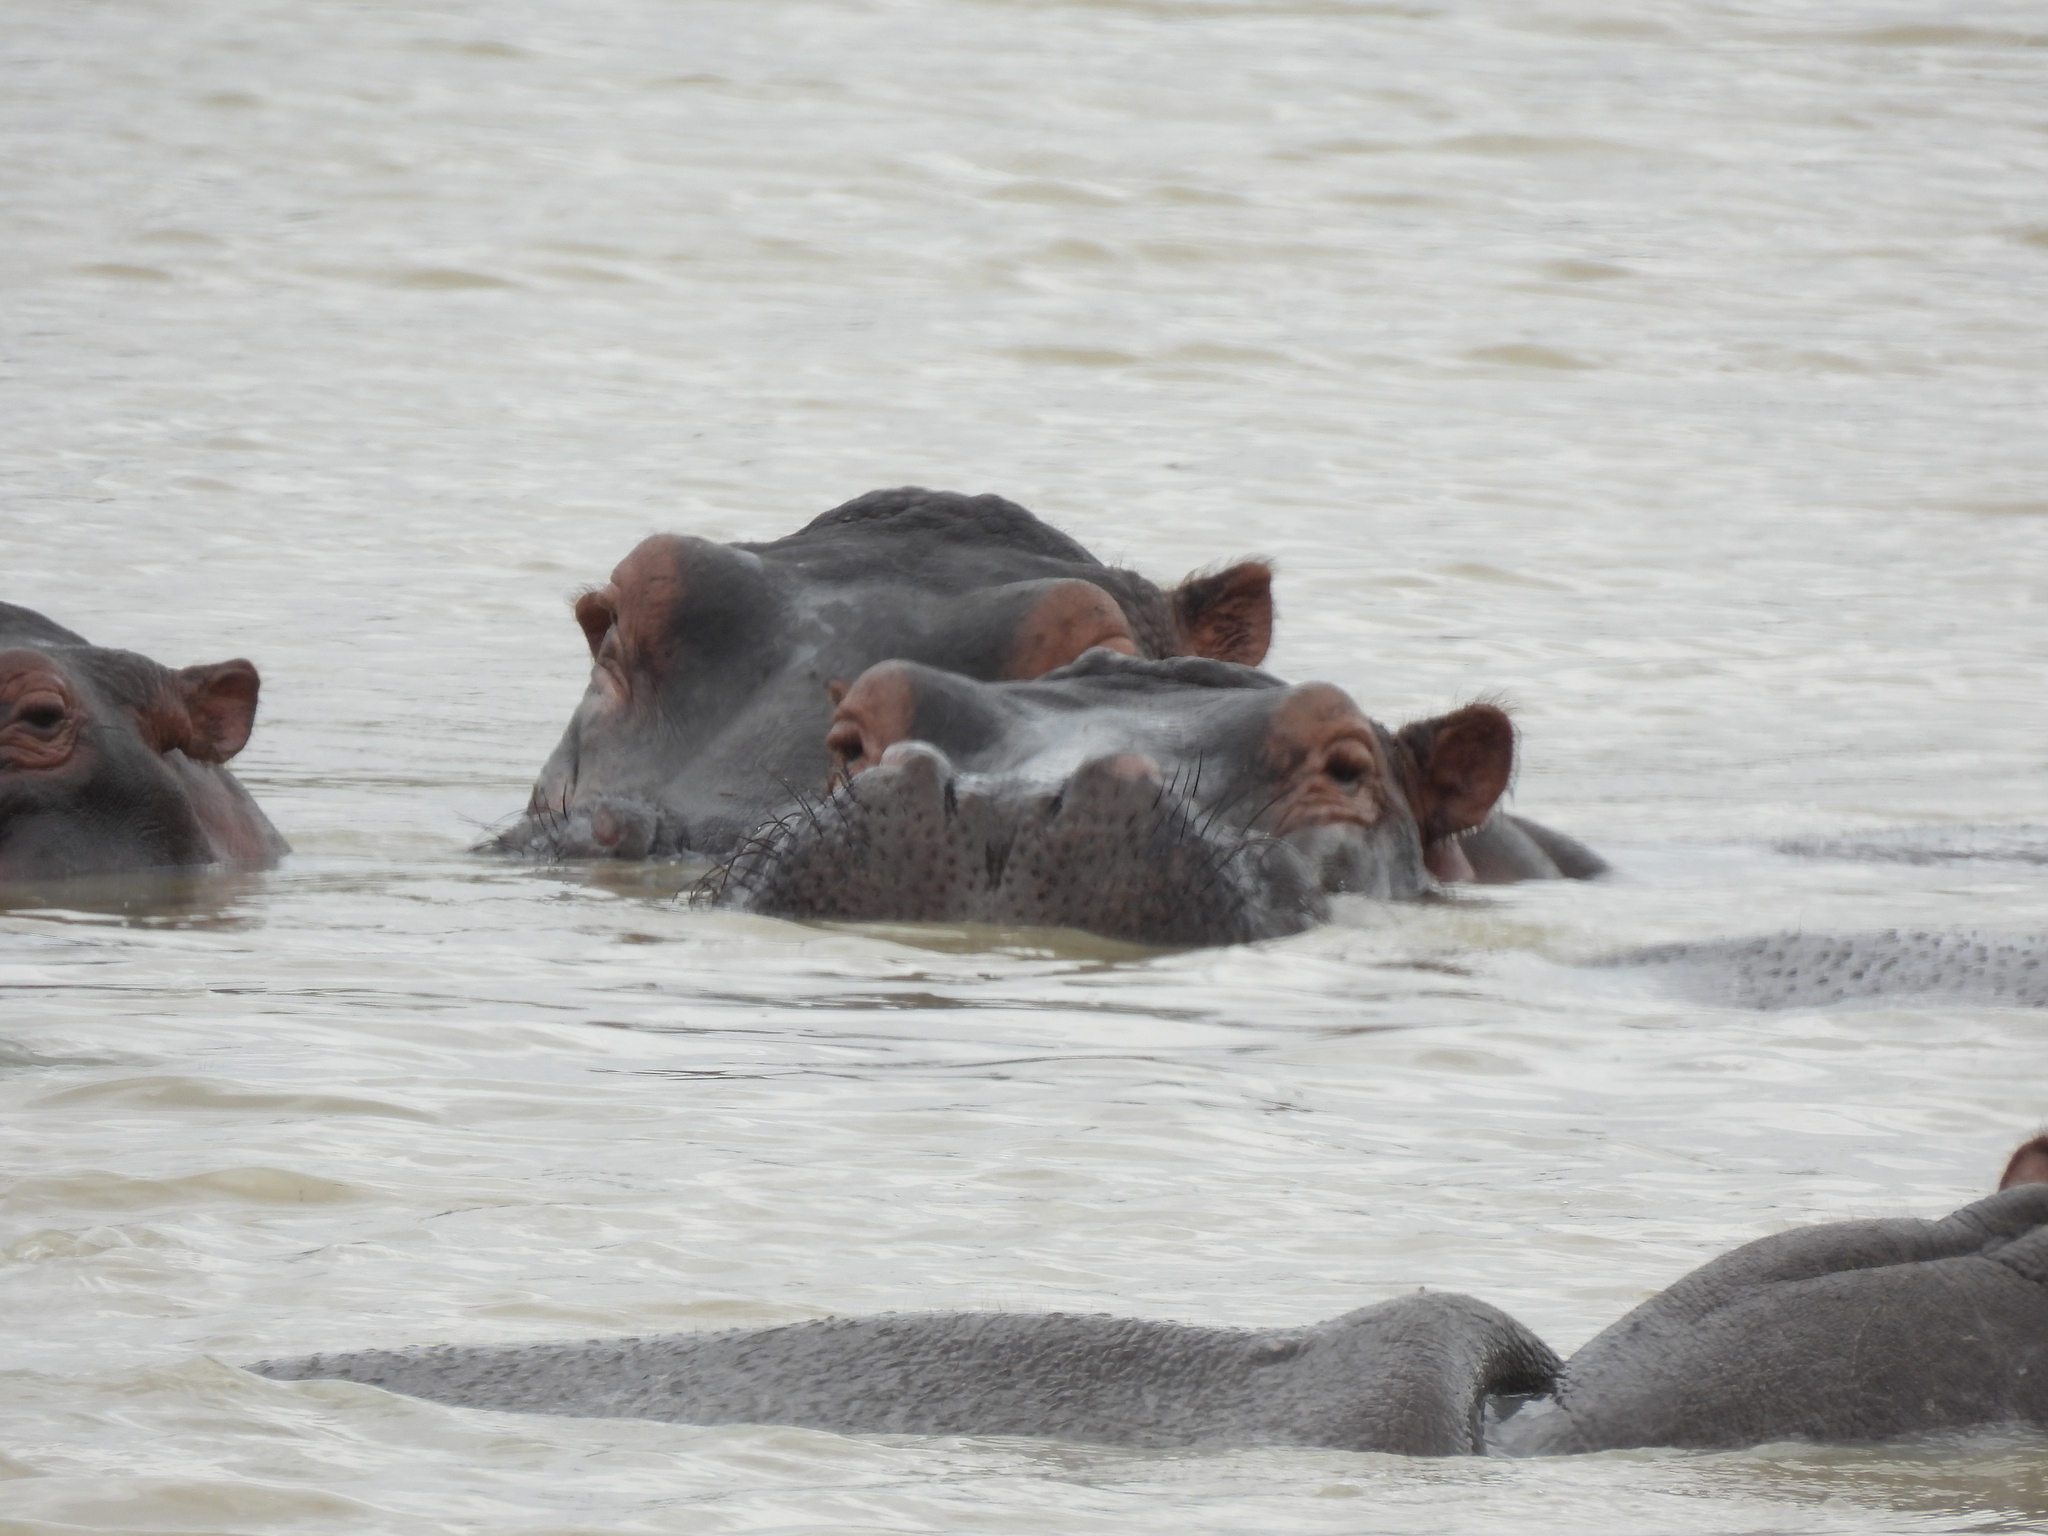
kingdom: Animalia
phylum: Chordata
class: Mammalia
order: Artiodactyla
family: Hippopotamidae
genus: Hippopotamus
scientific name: Hippopotamus amphibius
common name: Common hippopotamus
